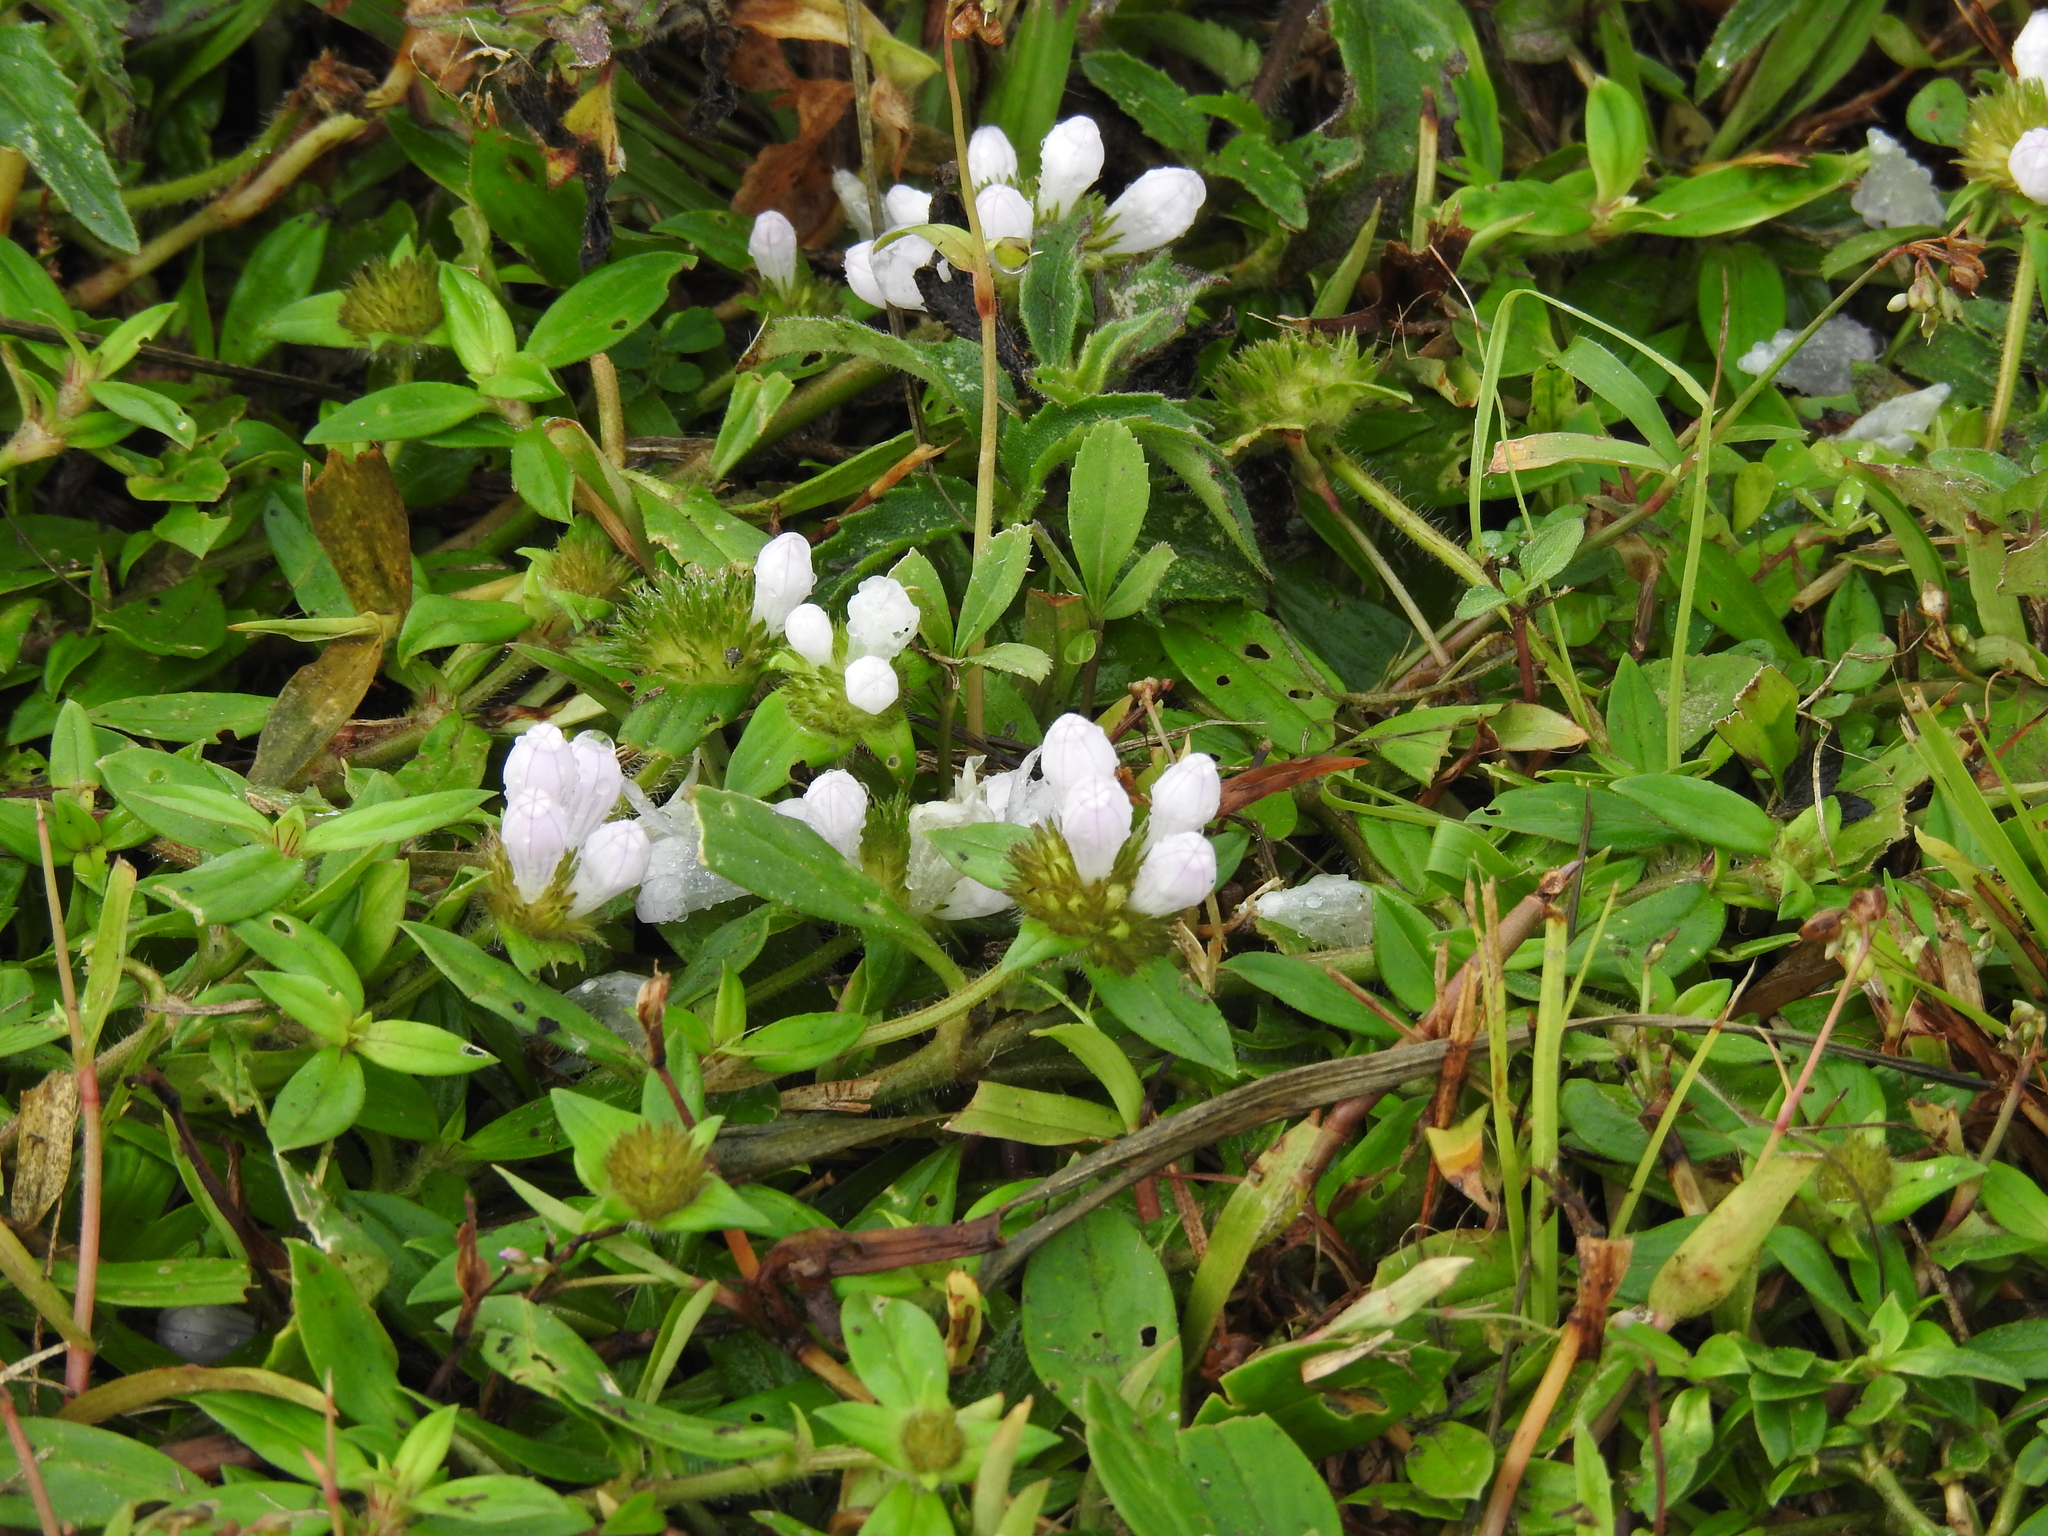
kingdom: Plantae
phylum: Tracheophyta
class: Magnoliopsida
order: Gentianales
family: Rubiaceae
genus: Richardia
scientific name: Richardia grandiflora
